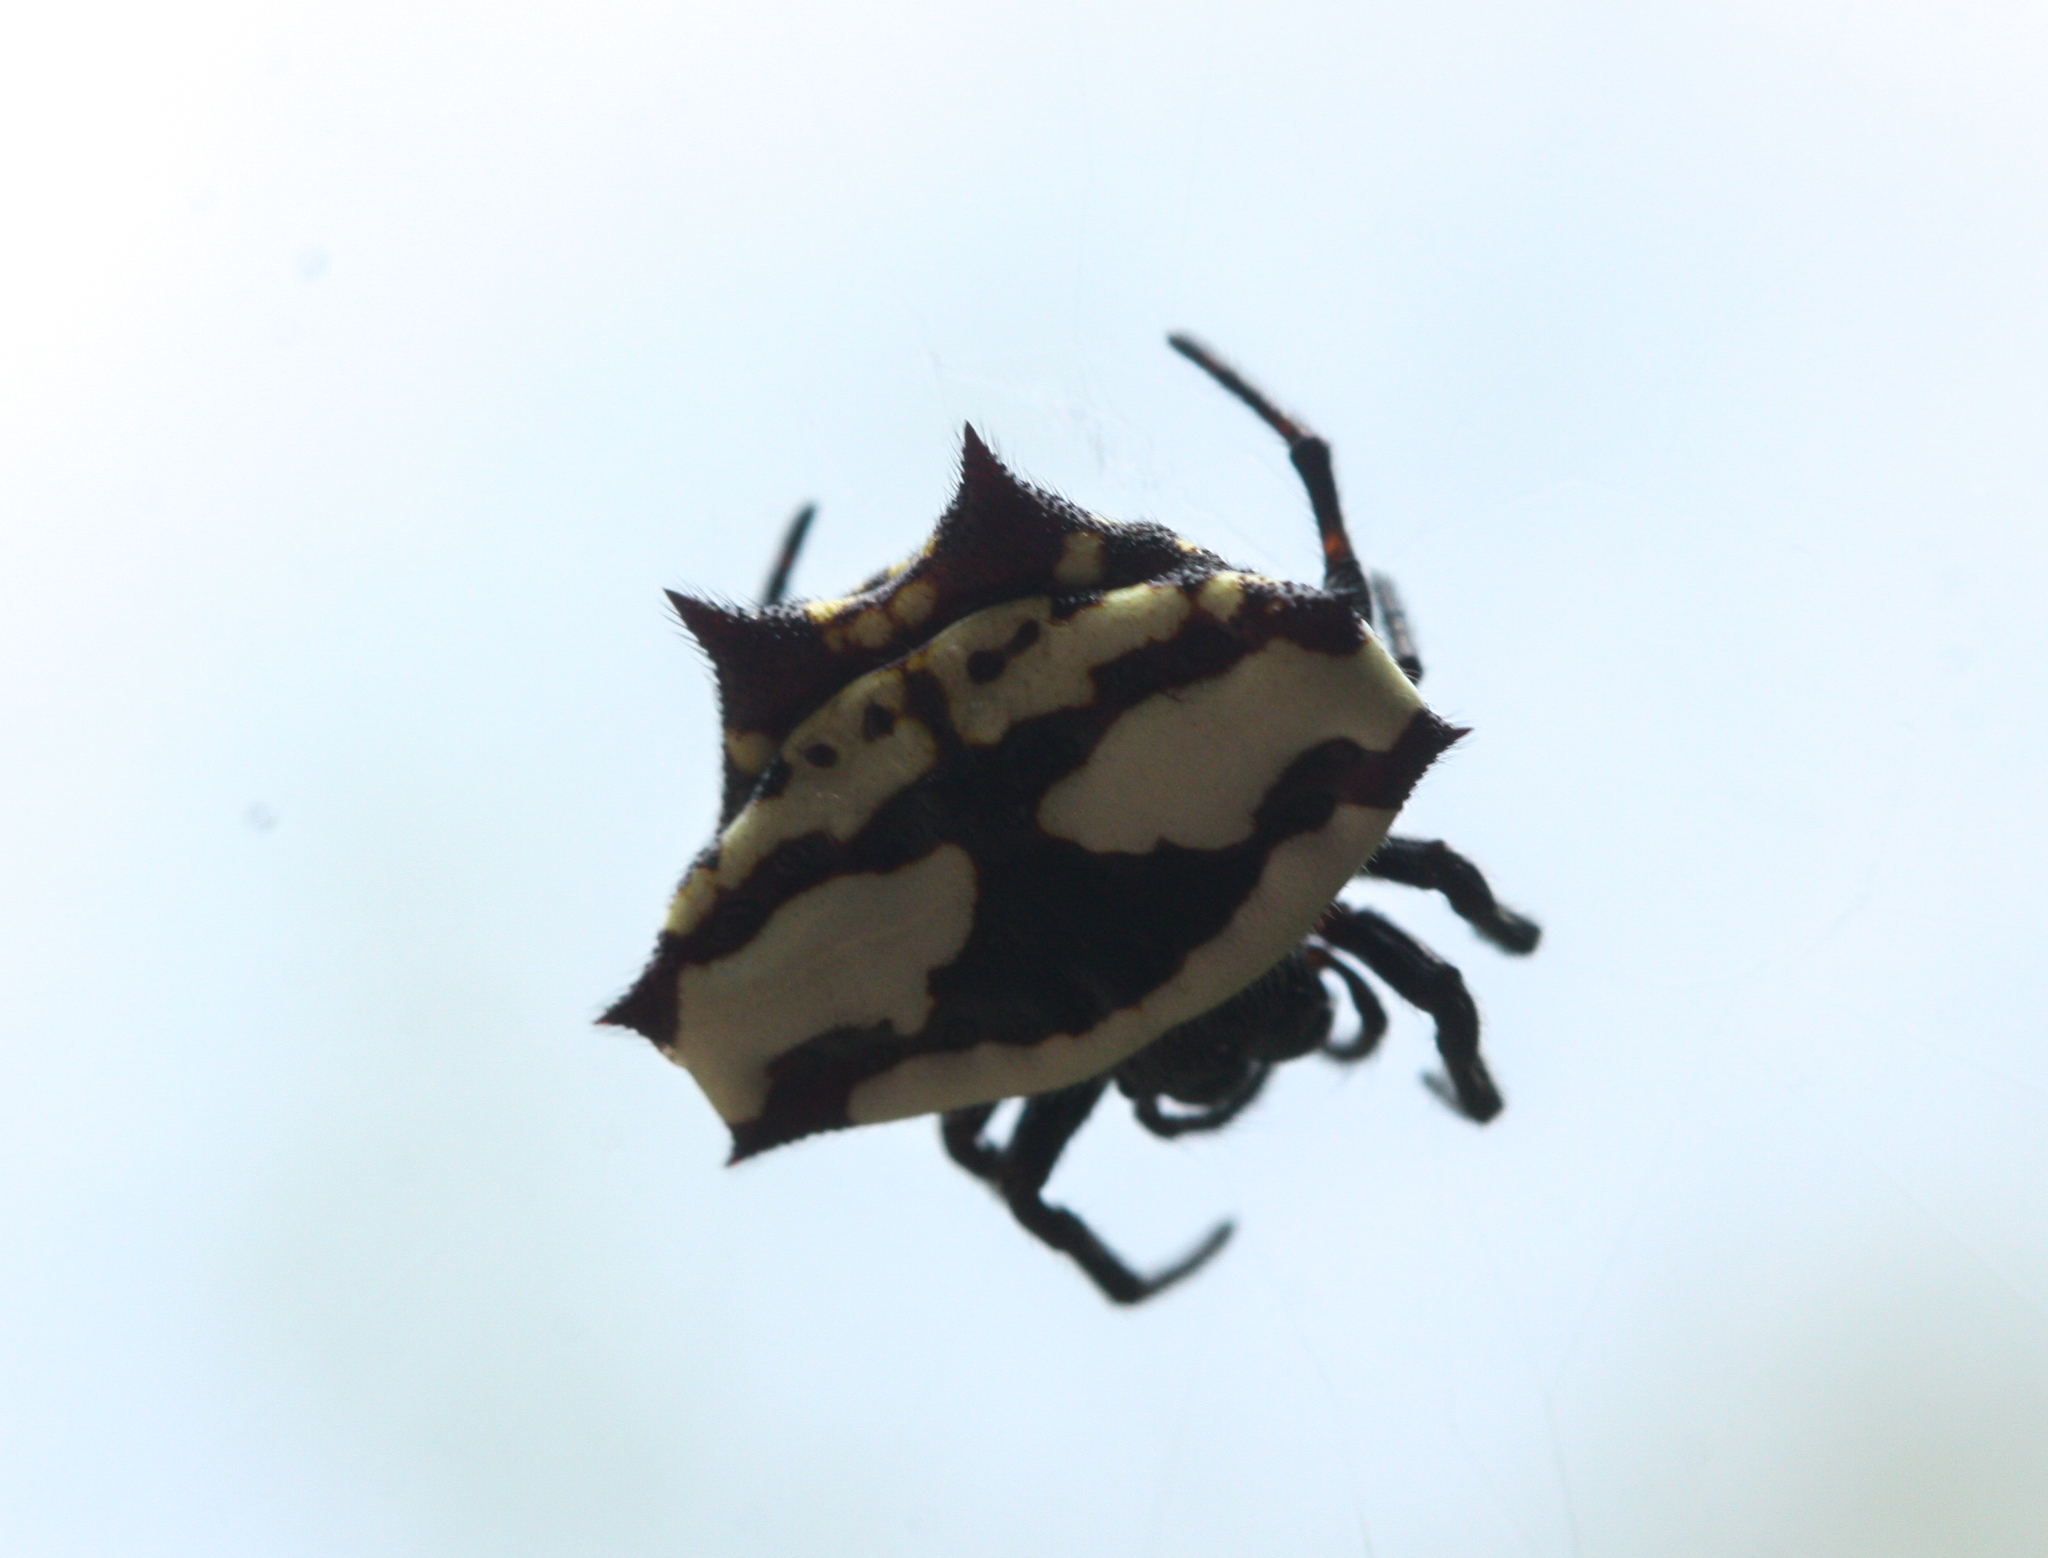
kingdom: Animalia
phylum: Arthropoda
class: Arachnida
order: Araneae
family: Araneidae
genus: Gasteracantha
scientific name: Gasteracantha cancriformis
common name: Orb weavers
